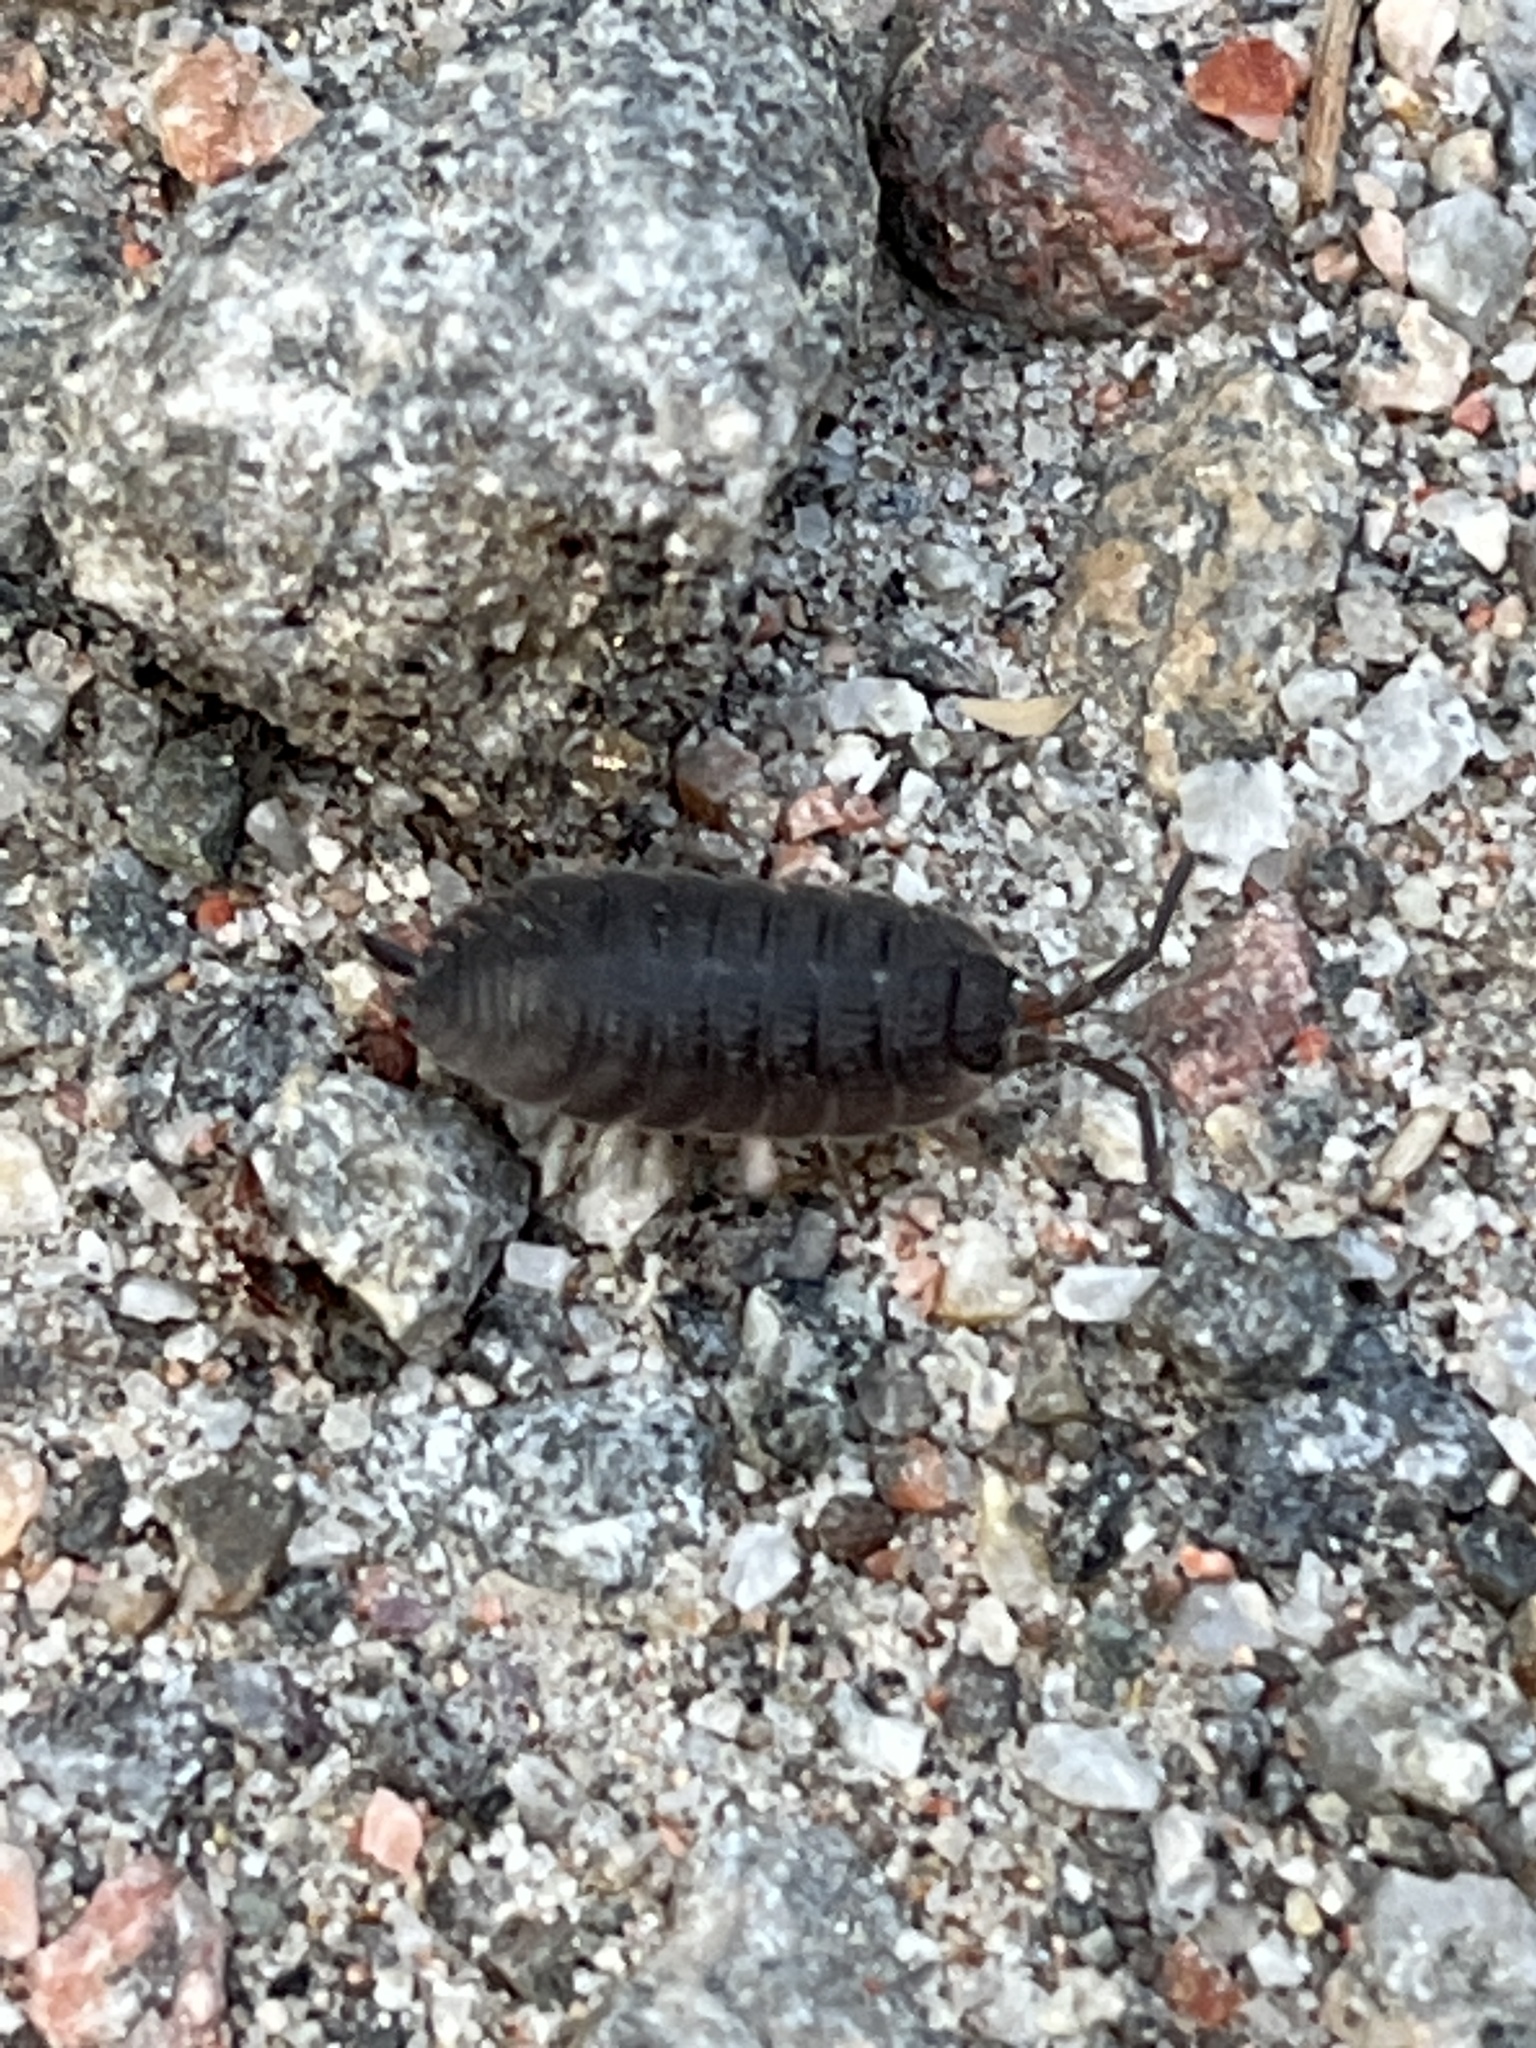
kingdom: Animalia
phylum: Arthropoda
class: Malacostraca
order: Isopoda
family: Porcellionidae
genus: Porcellio
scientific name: Porcellio scaber
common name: Common rough woodlouse
